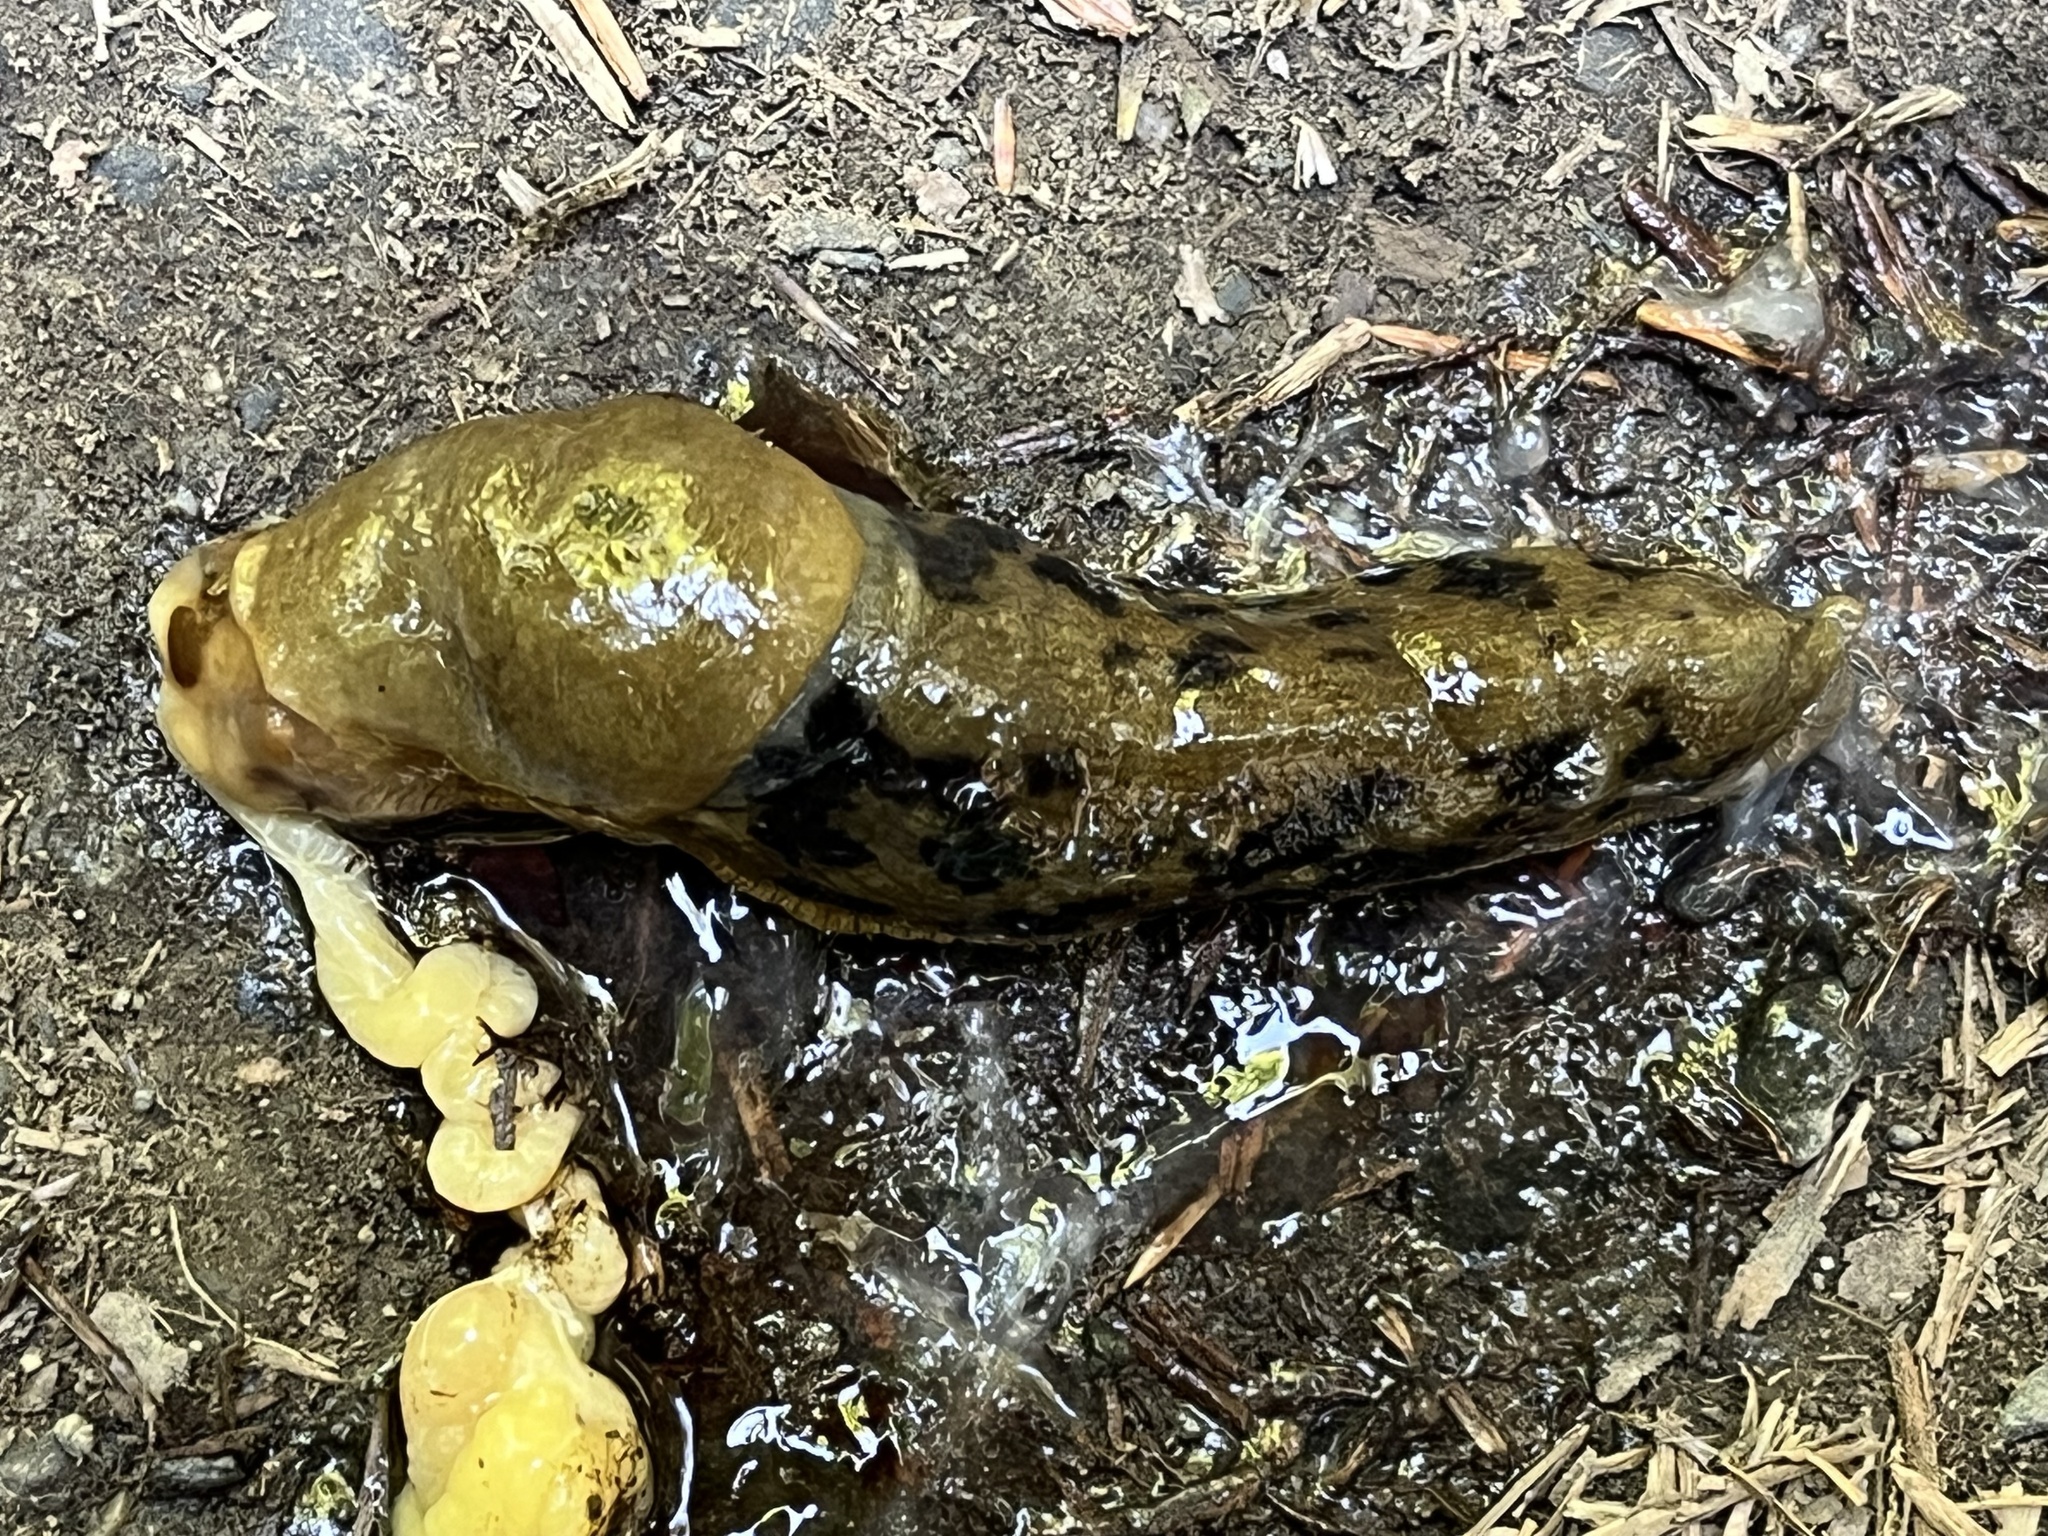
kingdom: Animalia
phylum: Mollusca
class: Gastropoda
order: Stylommatophora
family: Ariolimacidae
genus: Ariolimax
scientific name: Ariolimax columbianus
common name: Pacific banana slug
